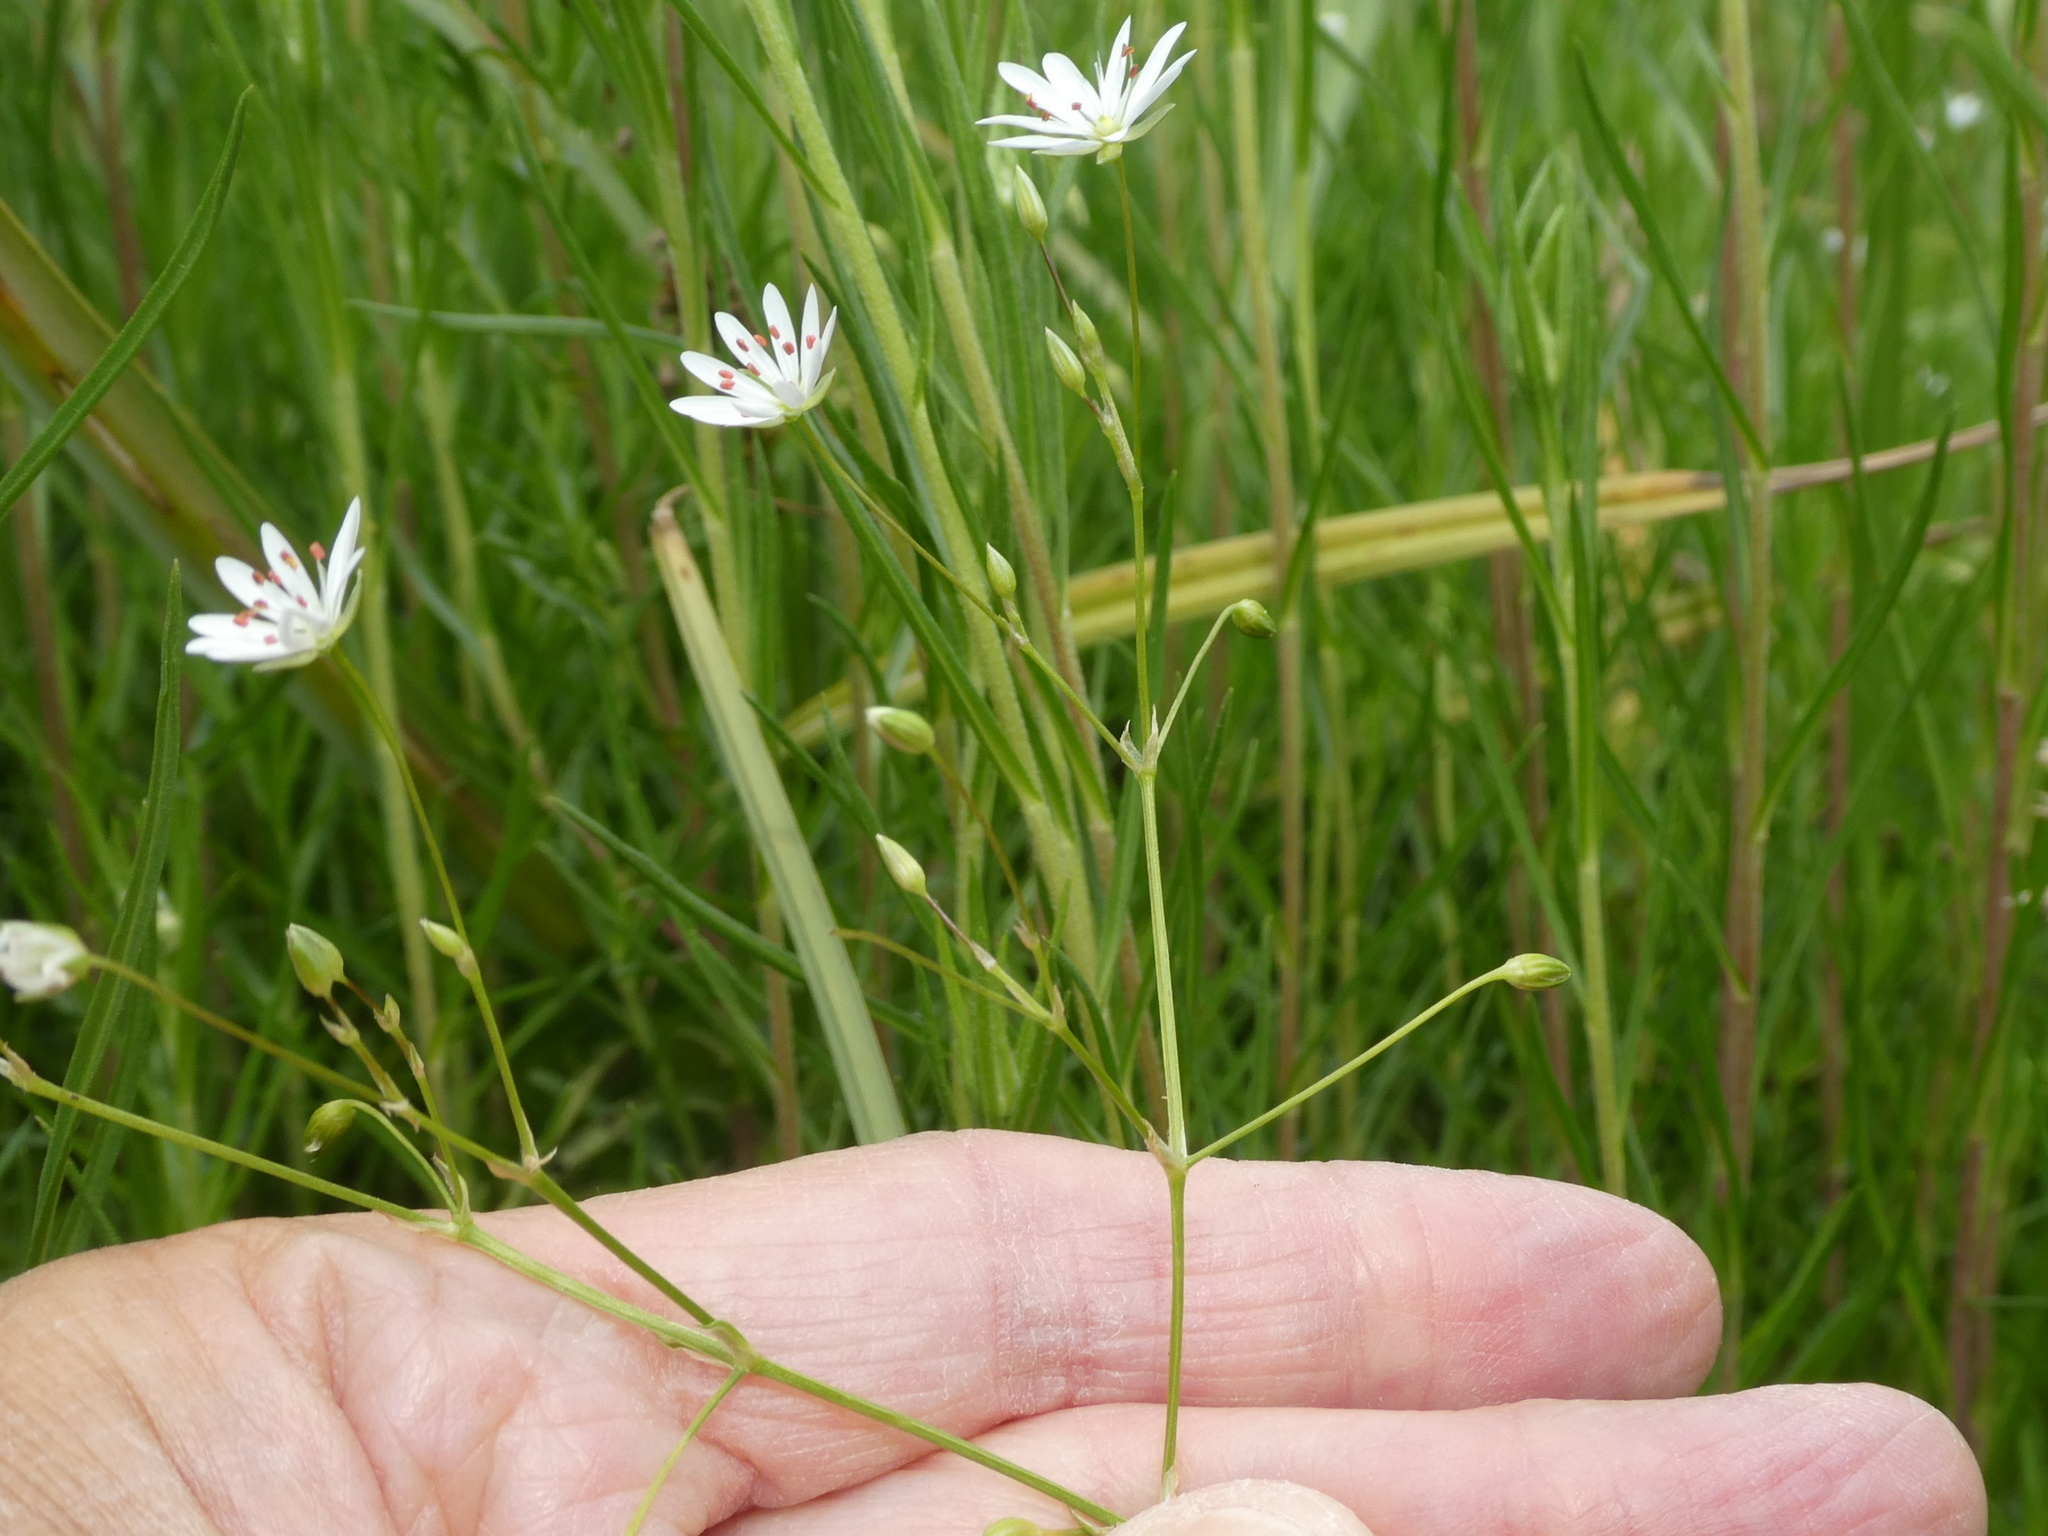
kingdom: Plantae
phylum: Tracheophyta
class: Magnoliopsida
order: Caryophyllales
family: Caryophyllaceae
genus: Stellaria
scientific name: Stellaria graminea
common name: Grass-like starwort
